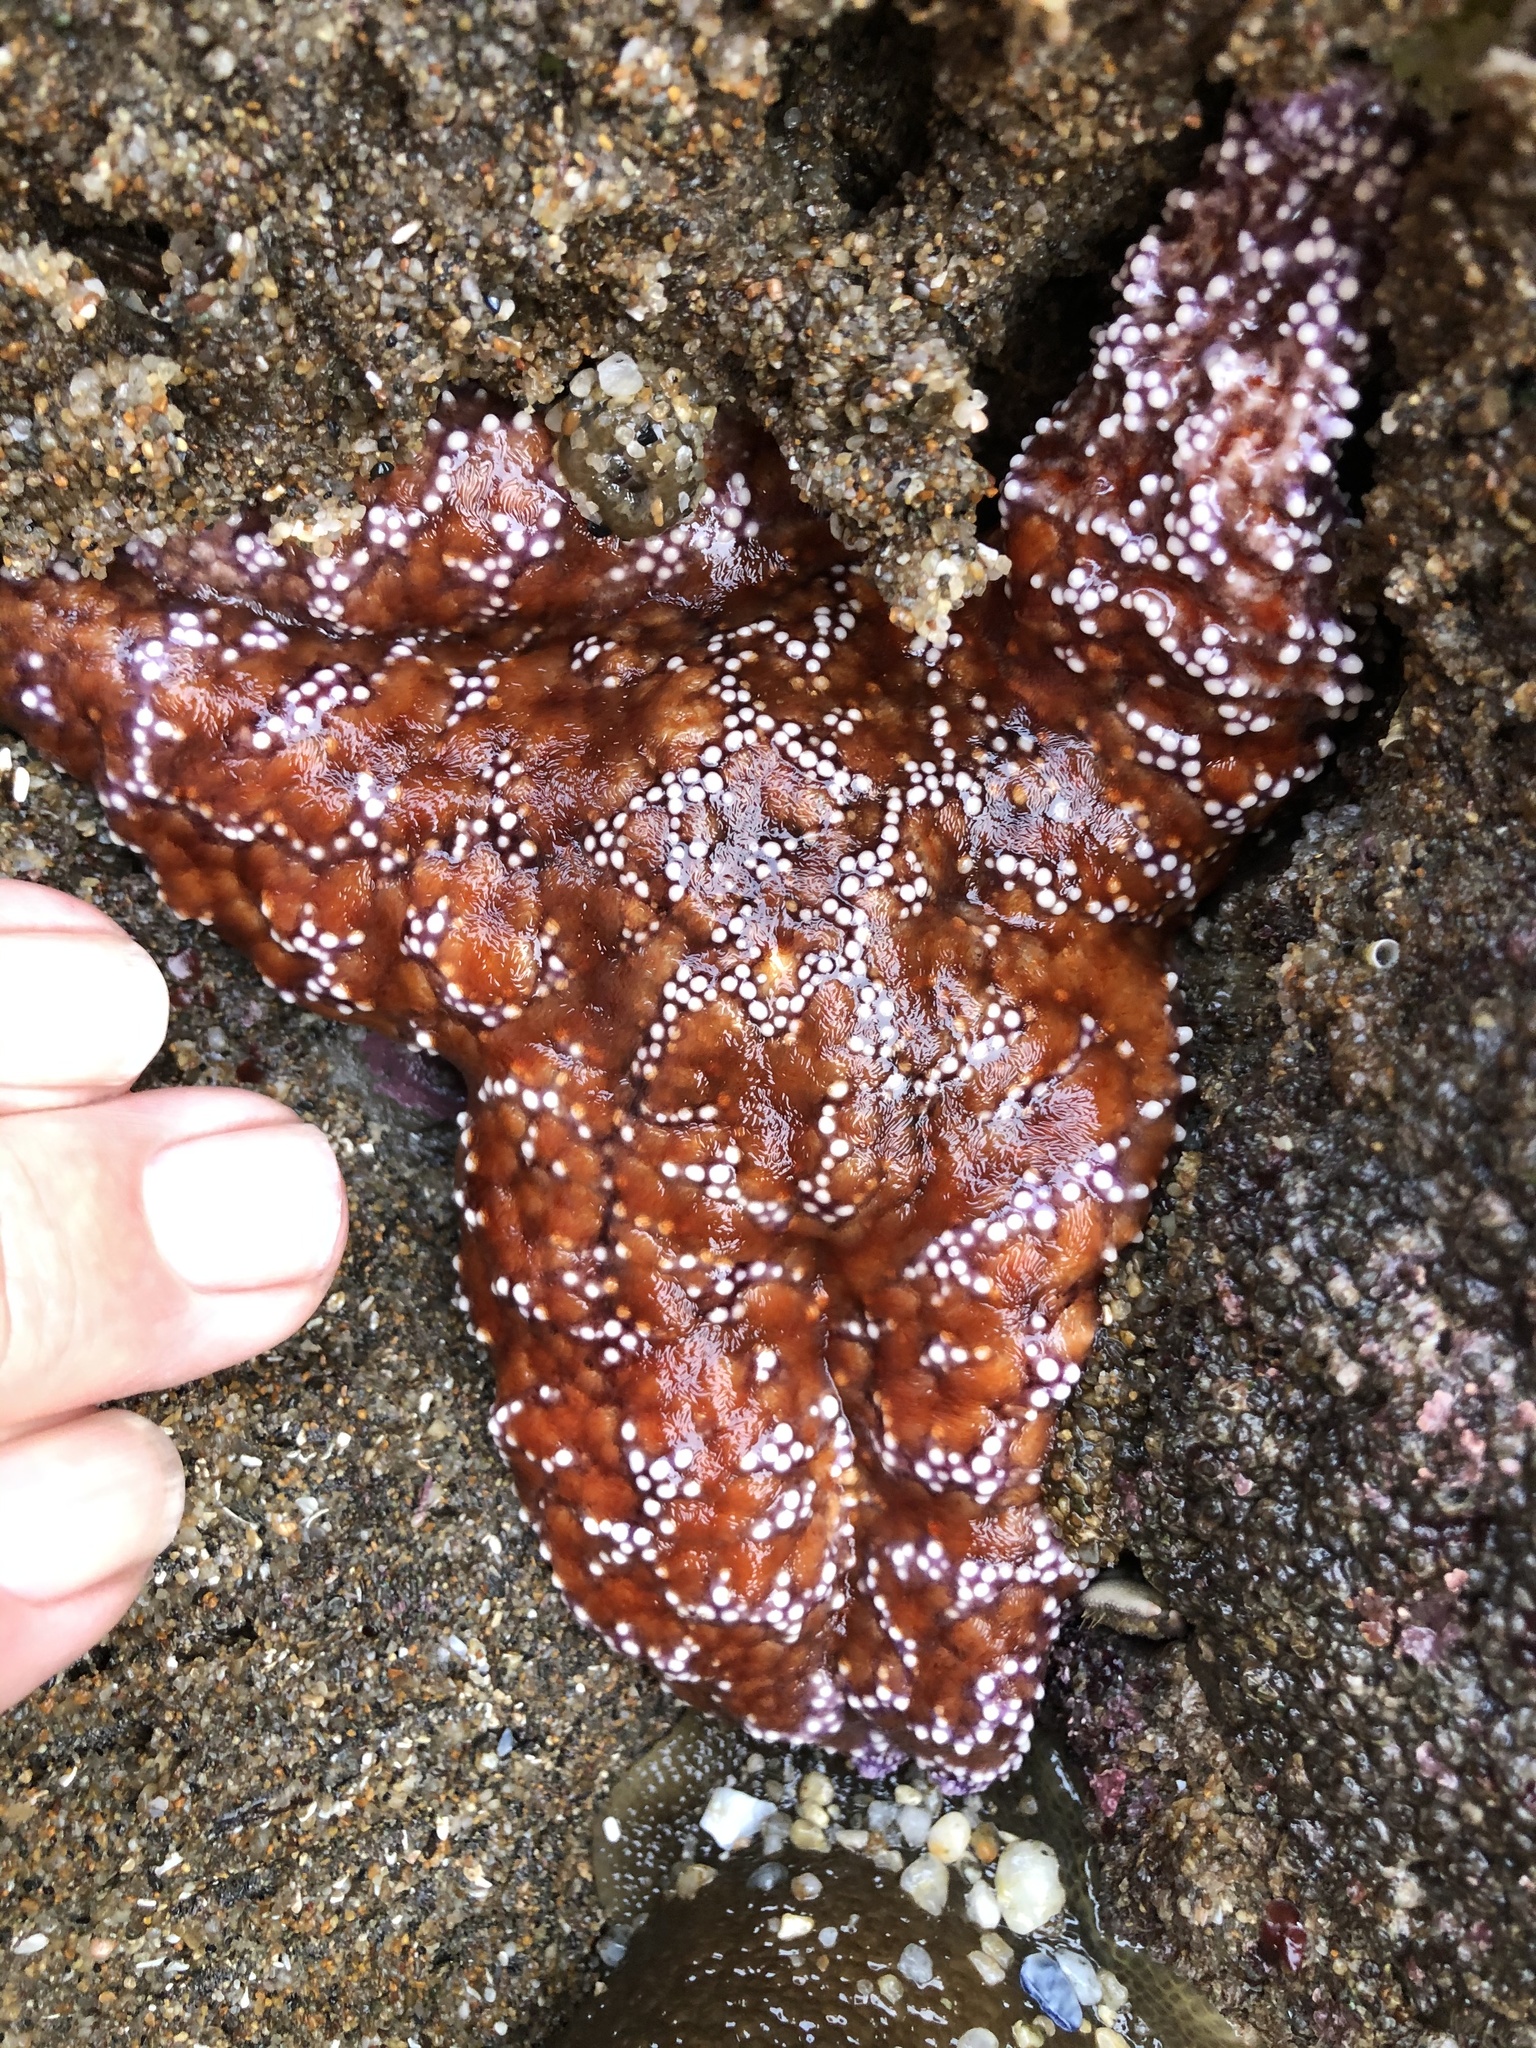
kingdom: Animalia
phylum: Echinodermata
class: Asteroidea
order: Forcipulatida
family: Asteriidae
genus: Pisaster
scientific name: Pisaster ochraceus
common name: Ochre stars
